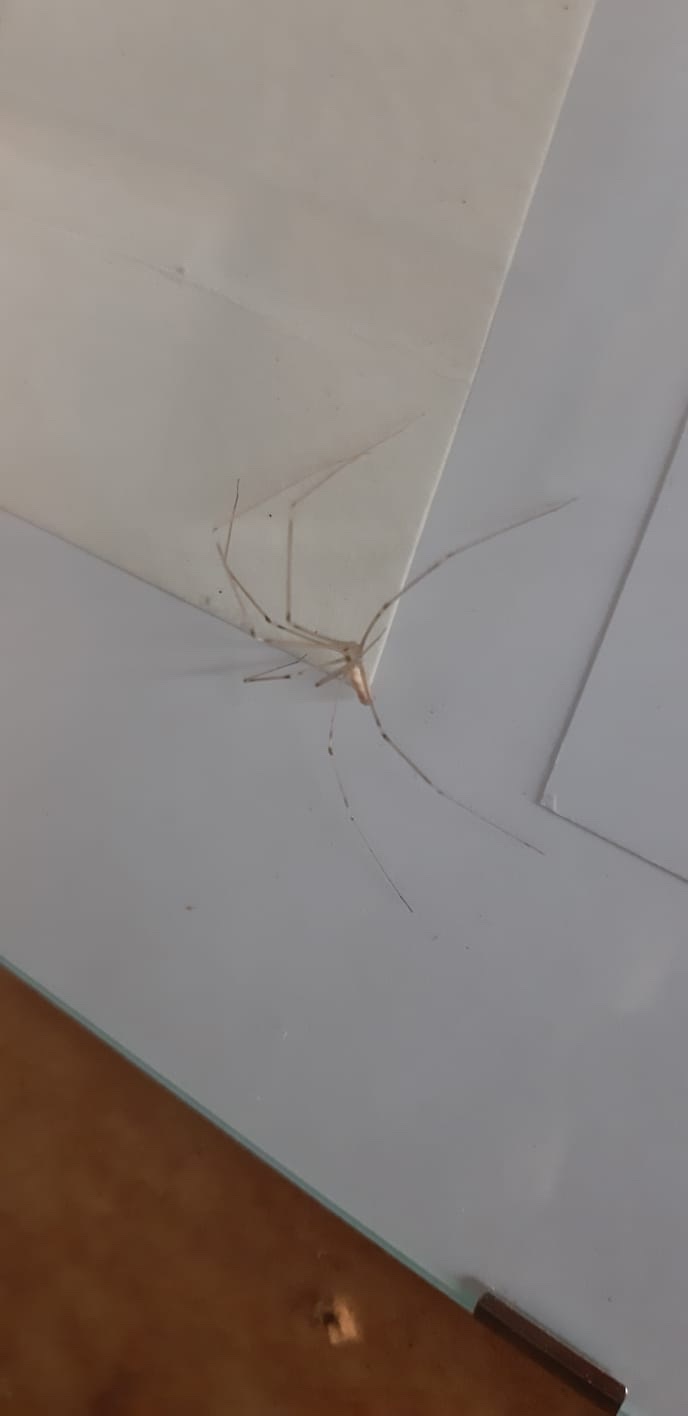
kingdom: Animalia
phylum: Arthropoda
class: Arachnida
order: Araneae
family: Pholcidae
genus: Pholcus
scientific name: Pholcus phalangioides
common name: Longbodied cellar spider
